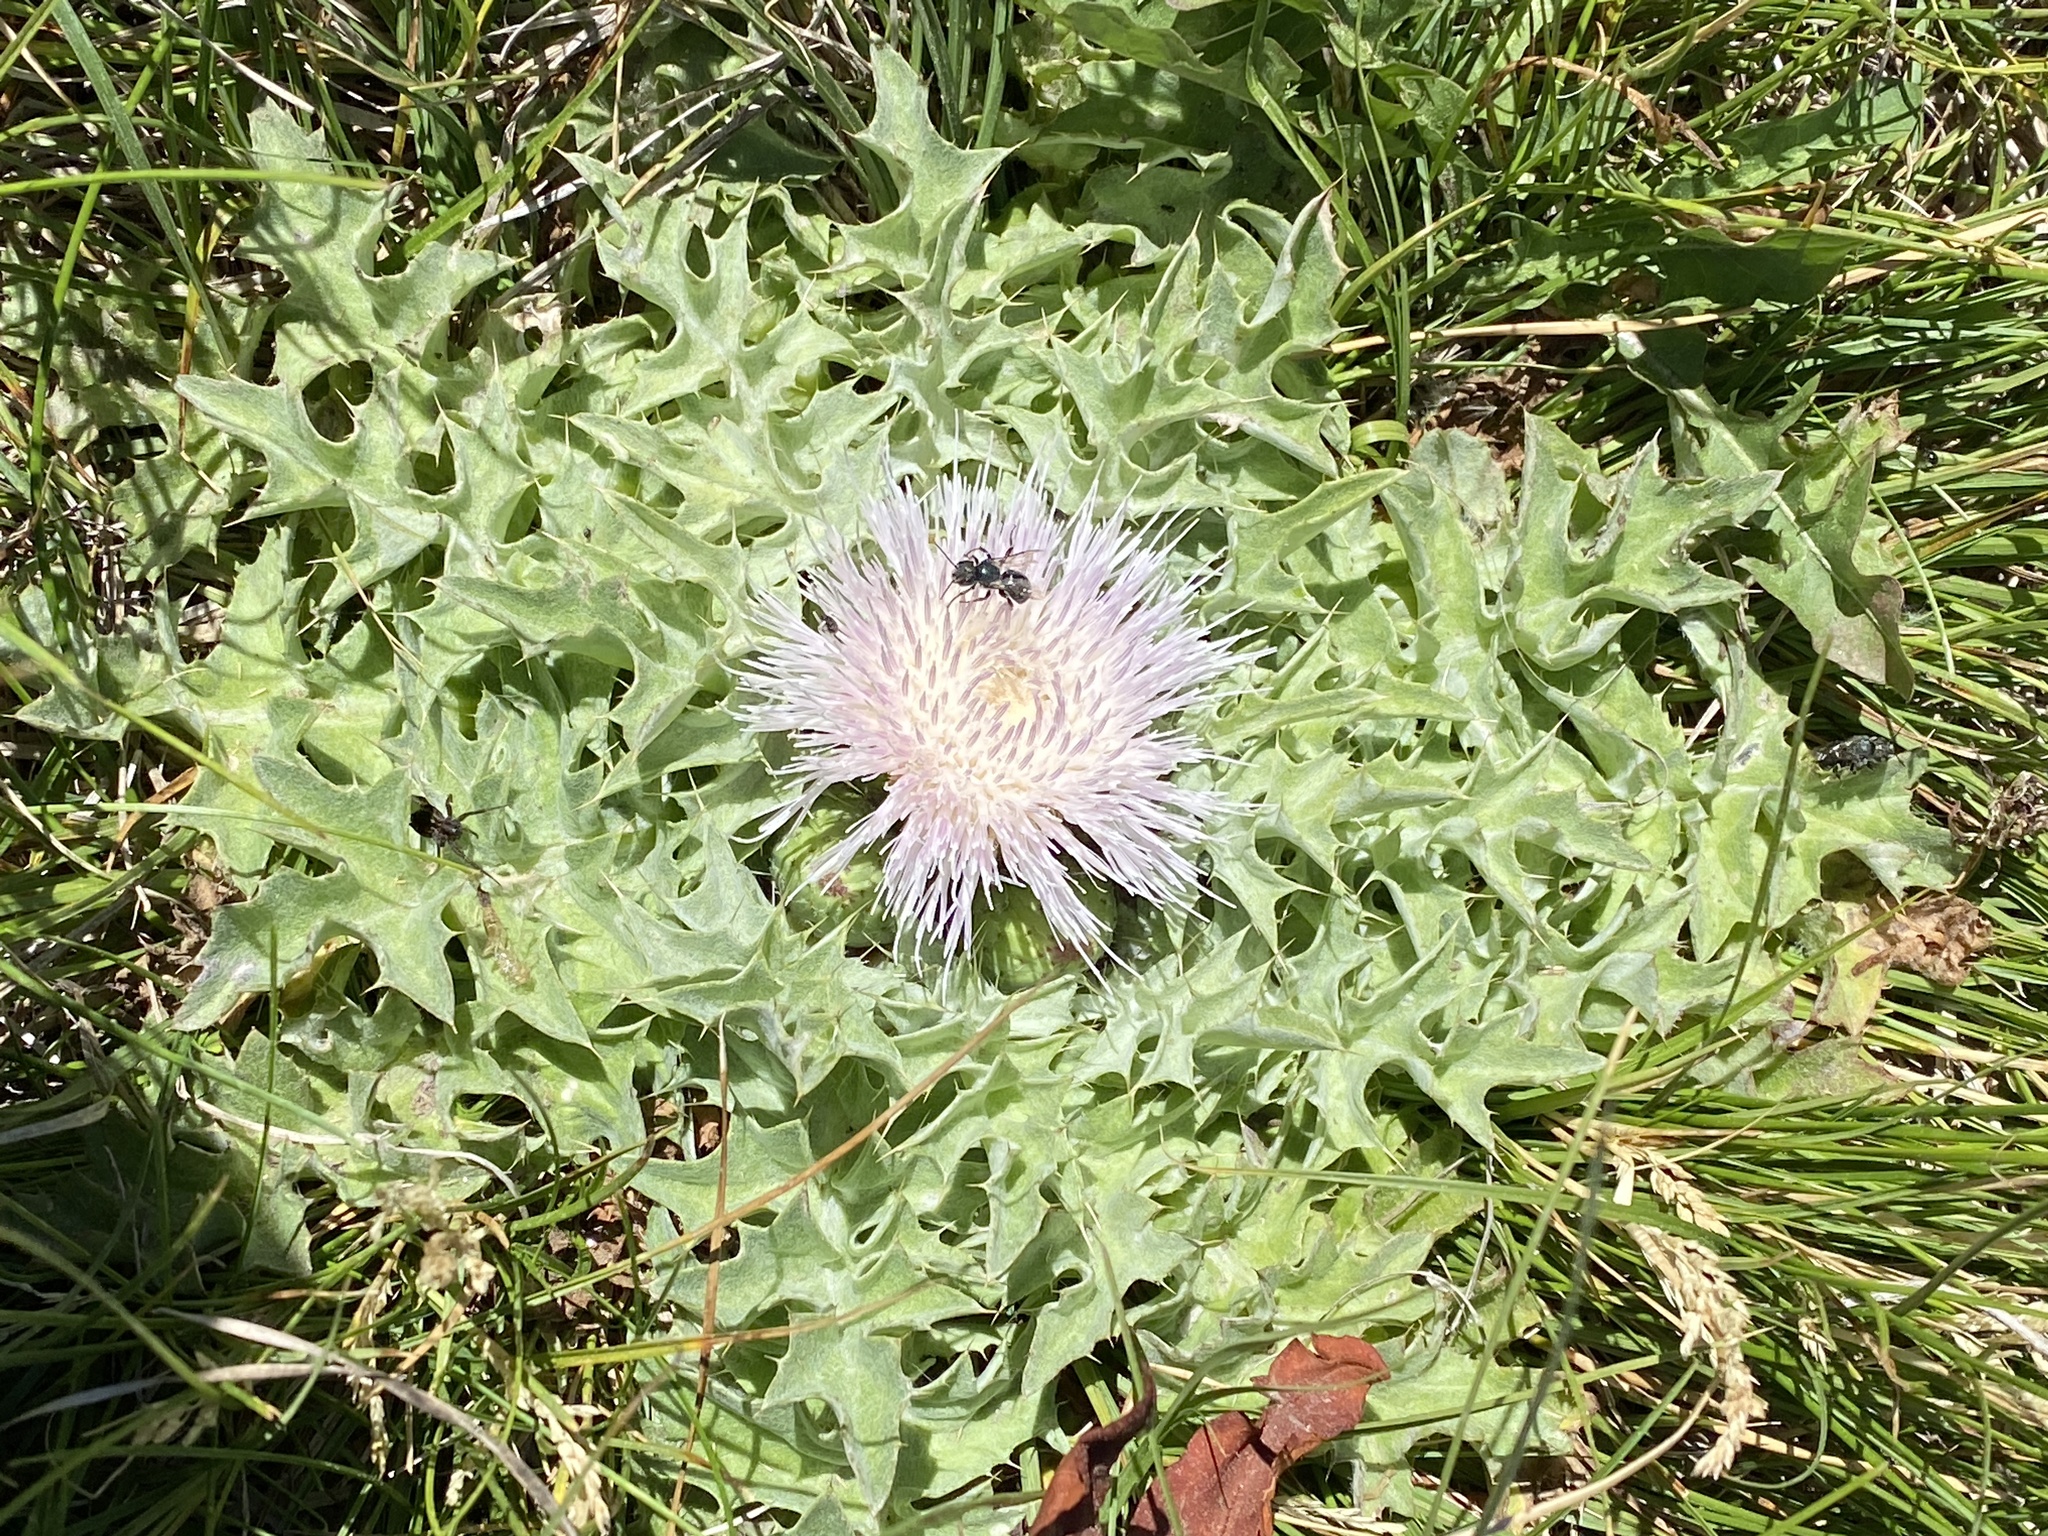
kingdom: Plantae
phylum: Tracheophyta
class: Magnoliopsida
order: Asterales
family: Asteraceae
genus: Cirsium
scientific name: Cirsium scariosum
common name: Meadow thistle
